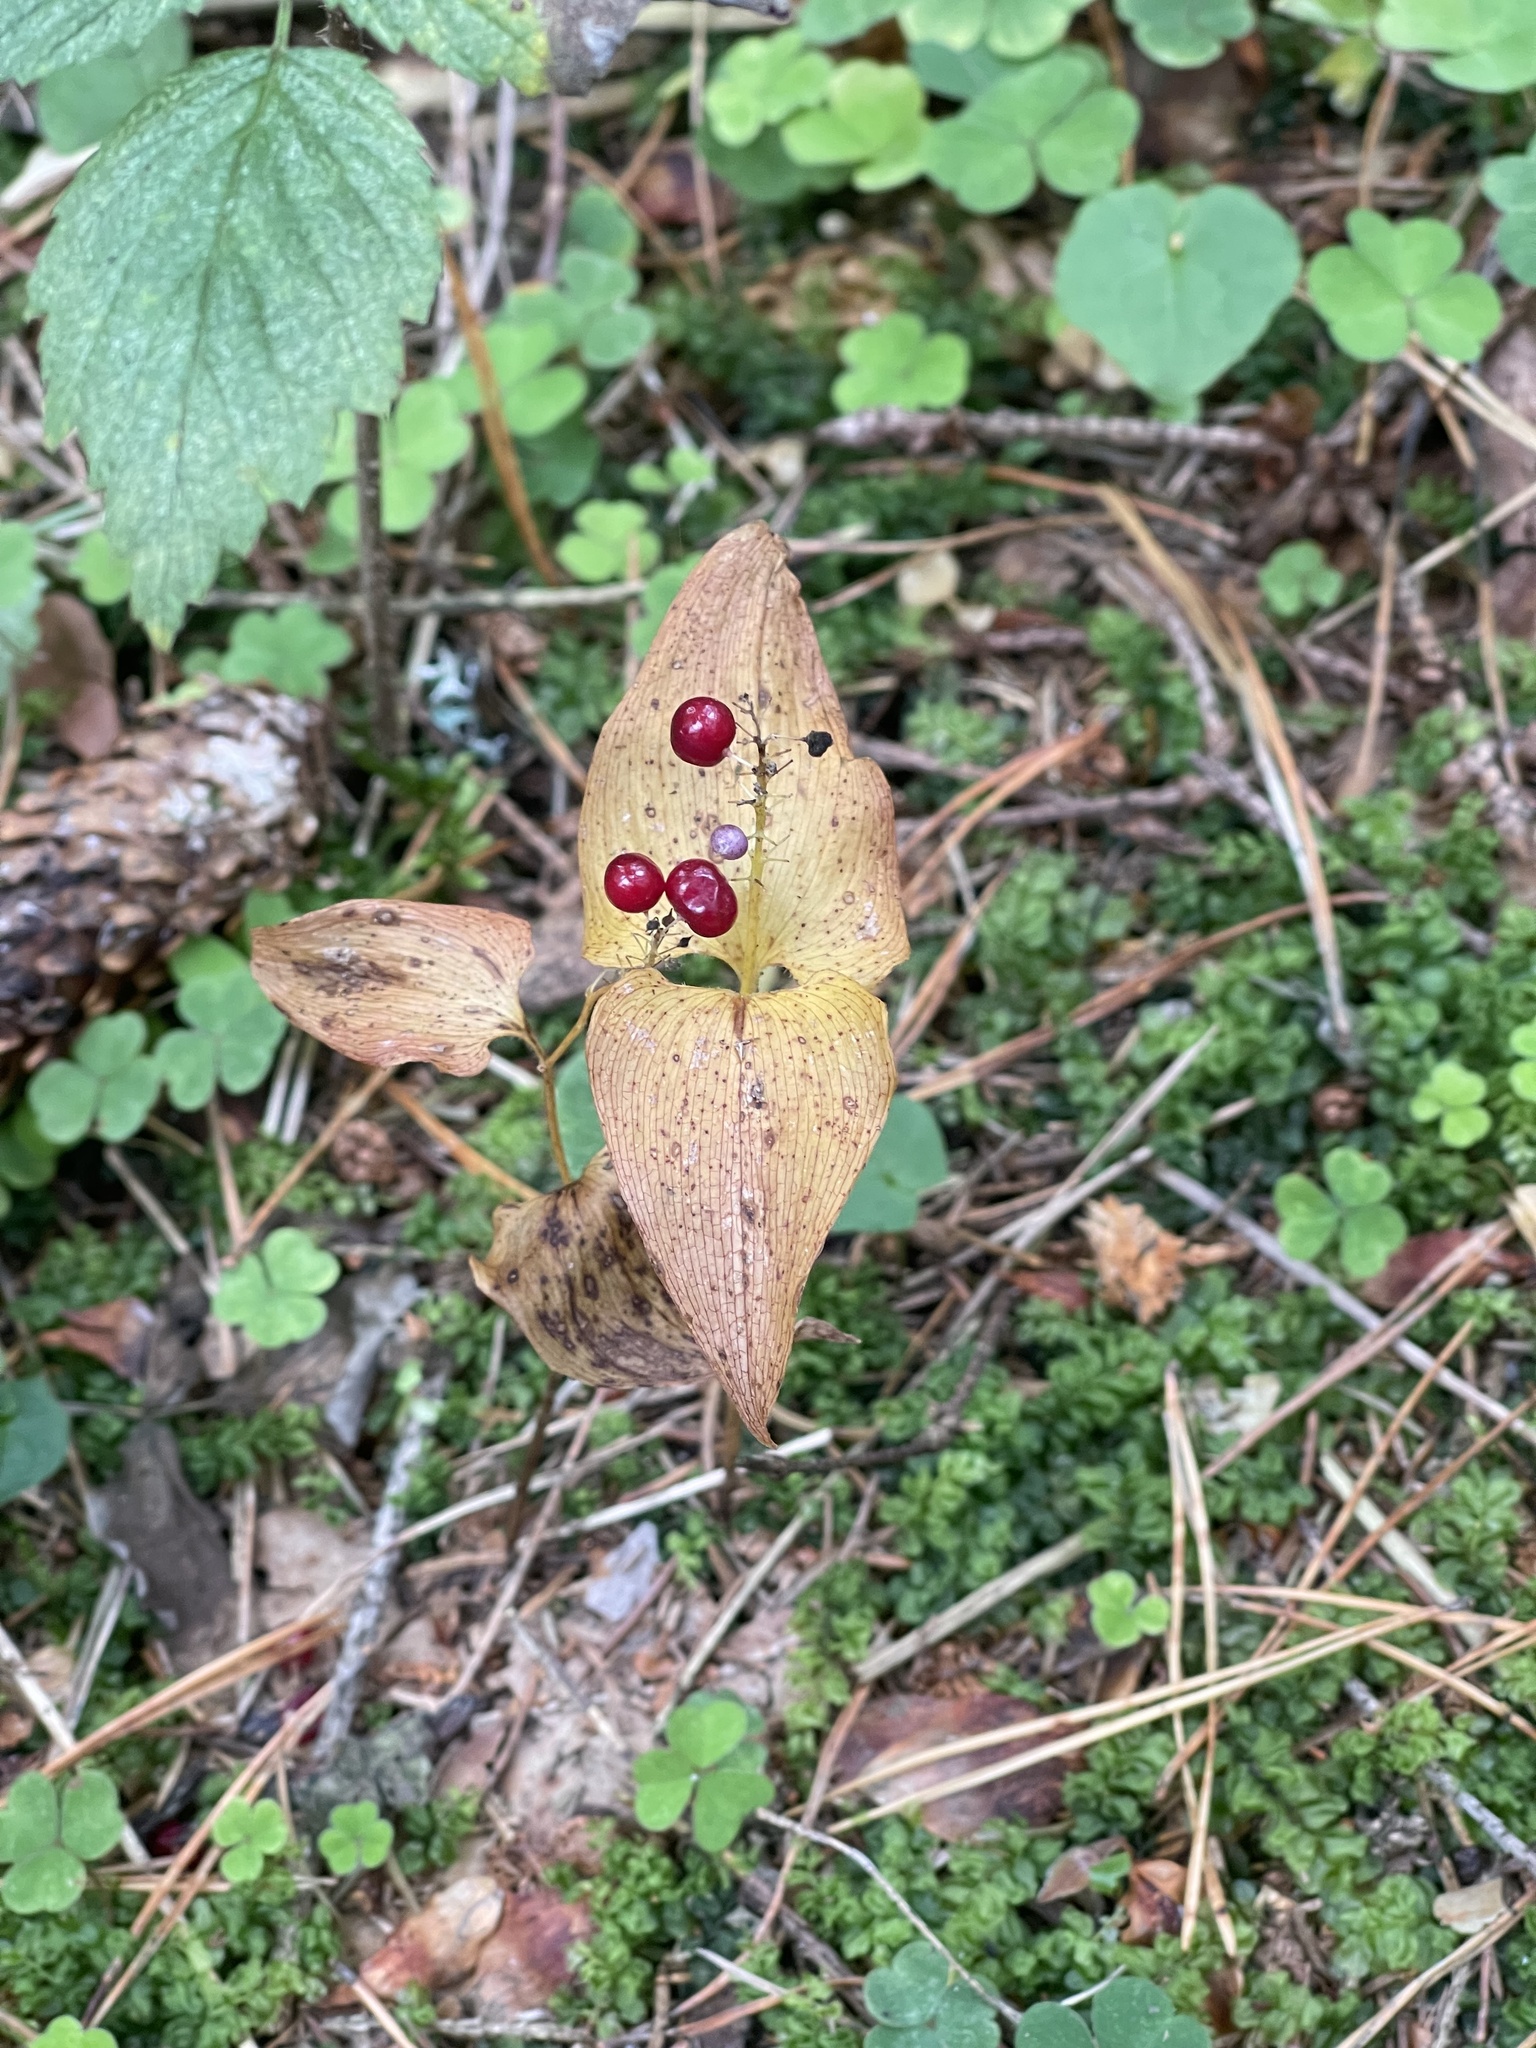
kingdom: Plantae
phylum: Tracheophyta
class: Liliopsida
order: Asparagales
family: Asparagaceae
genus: Maianthemum
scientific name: Maianthemum bifolium
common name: May lily
